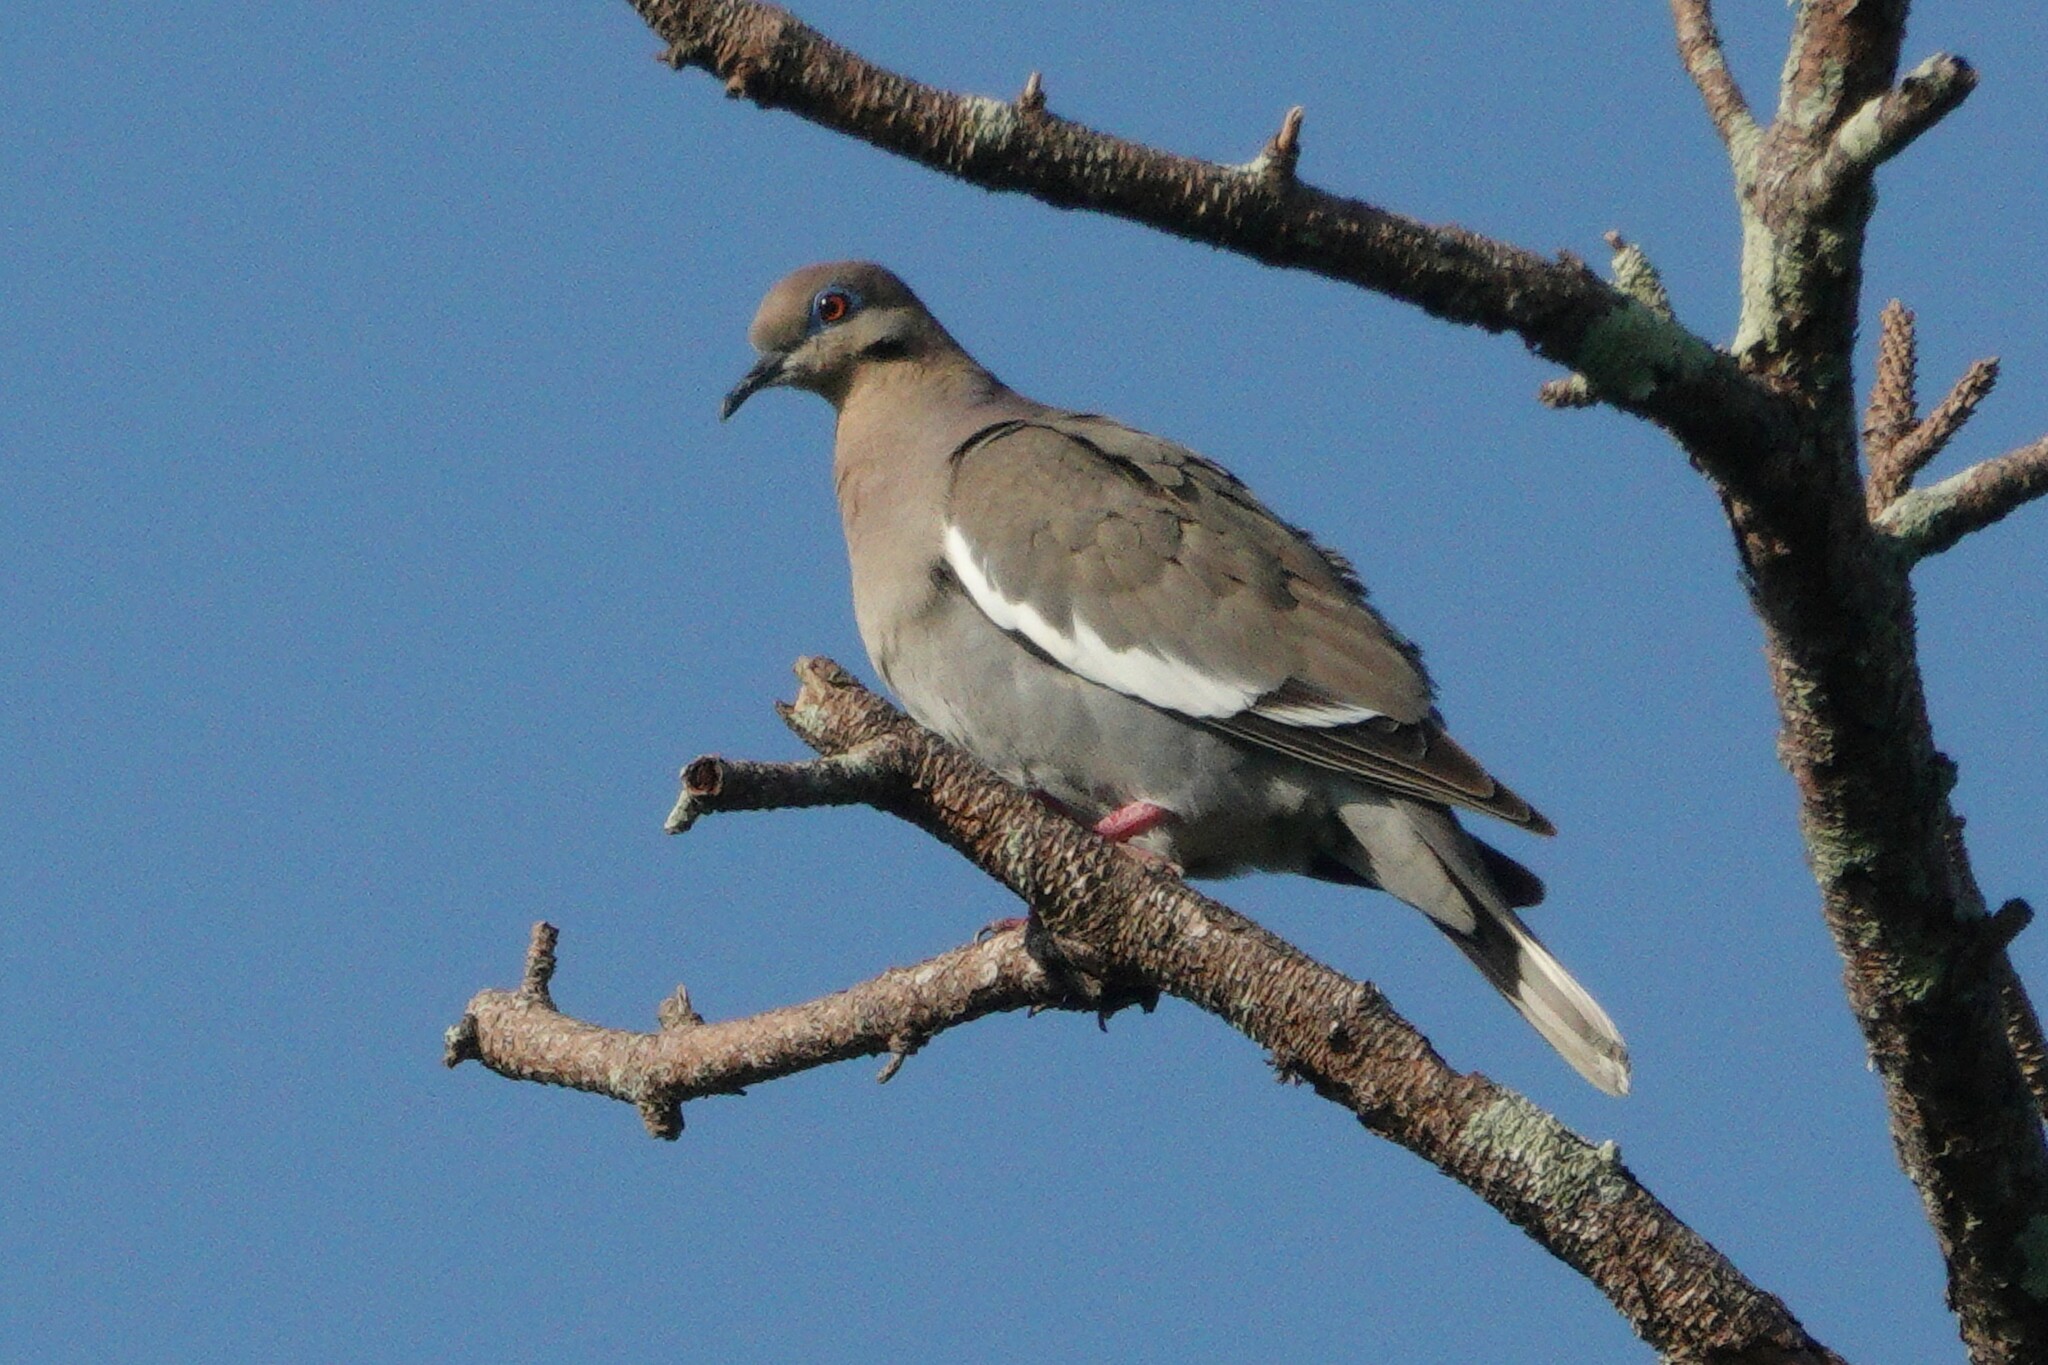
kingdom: Animalia
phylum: Chordata
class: Aves
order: Columbiformes
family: Columbidae
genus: Zenaida
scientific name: Zenaida asiatica
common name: White-winged dove
